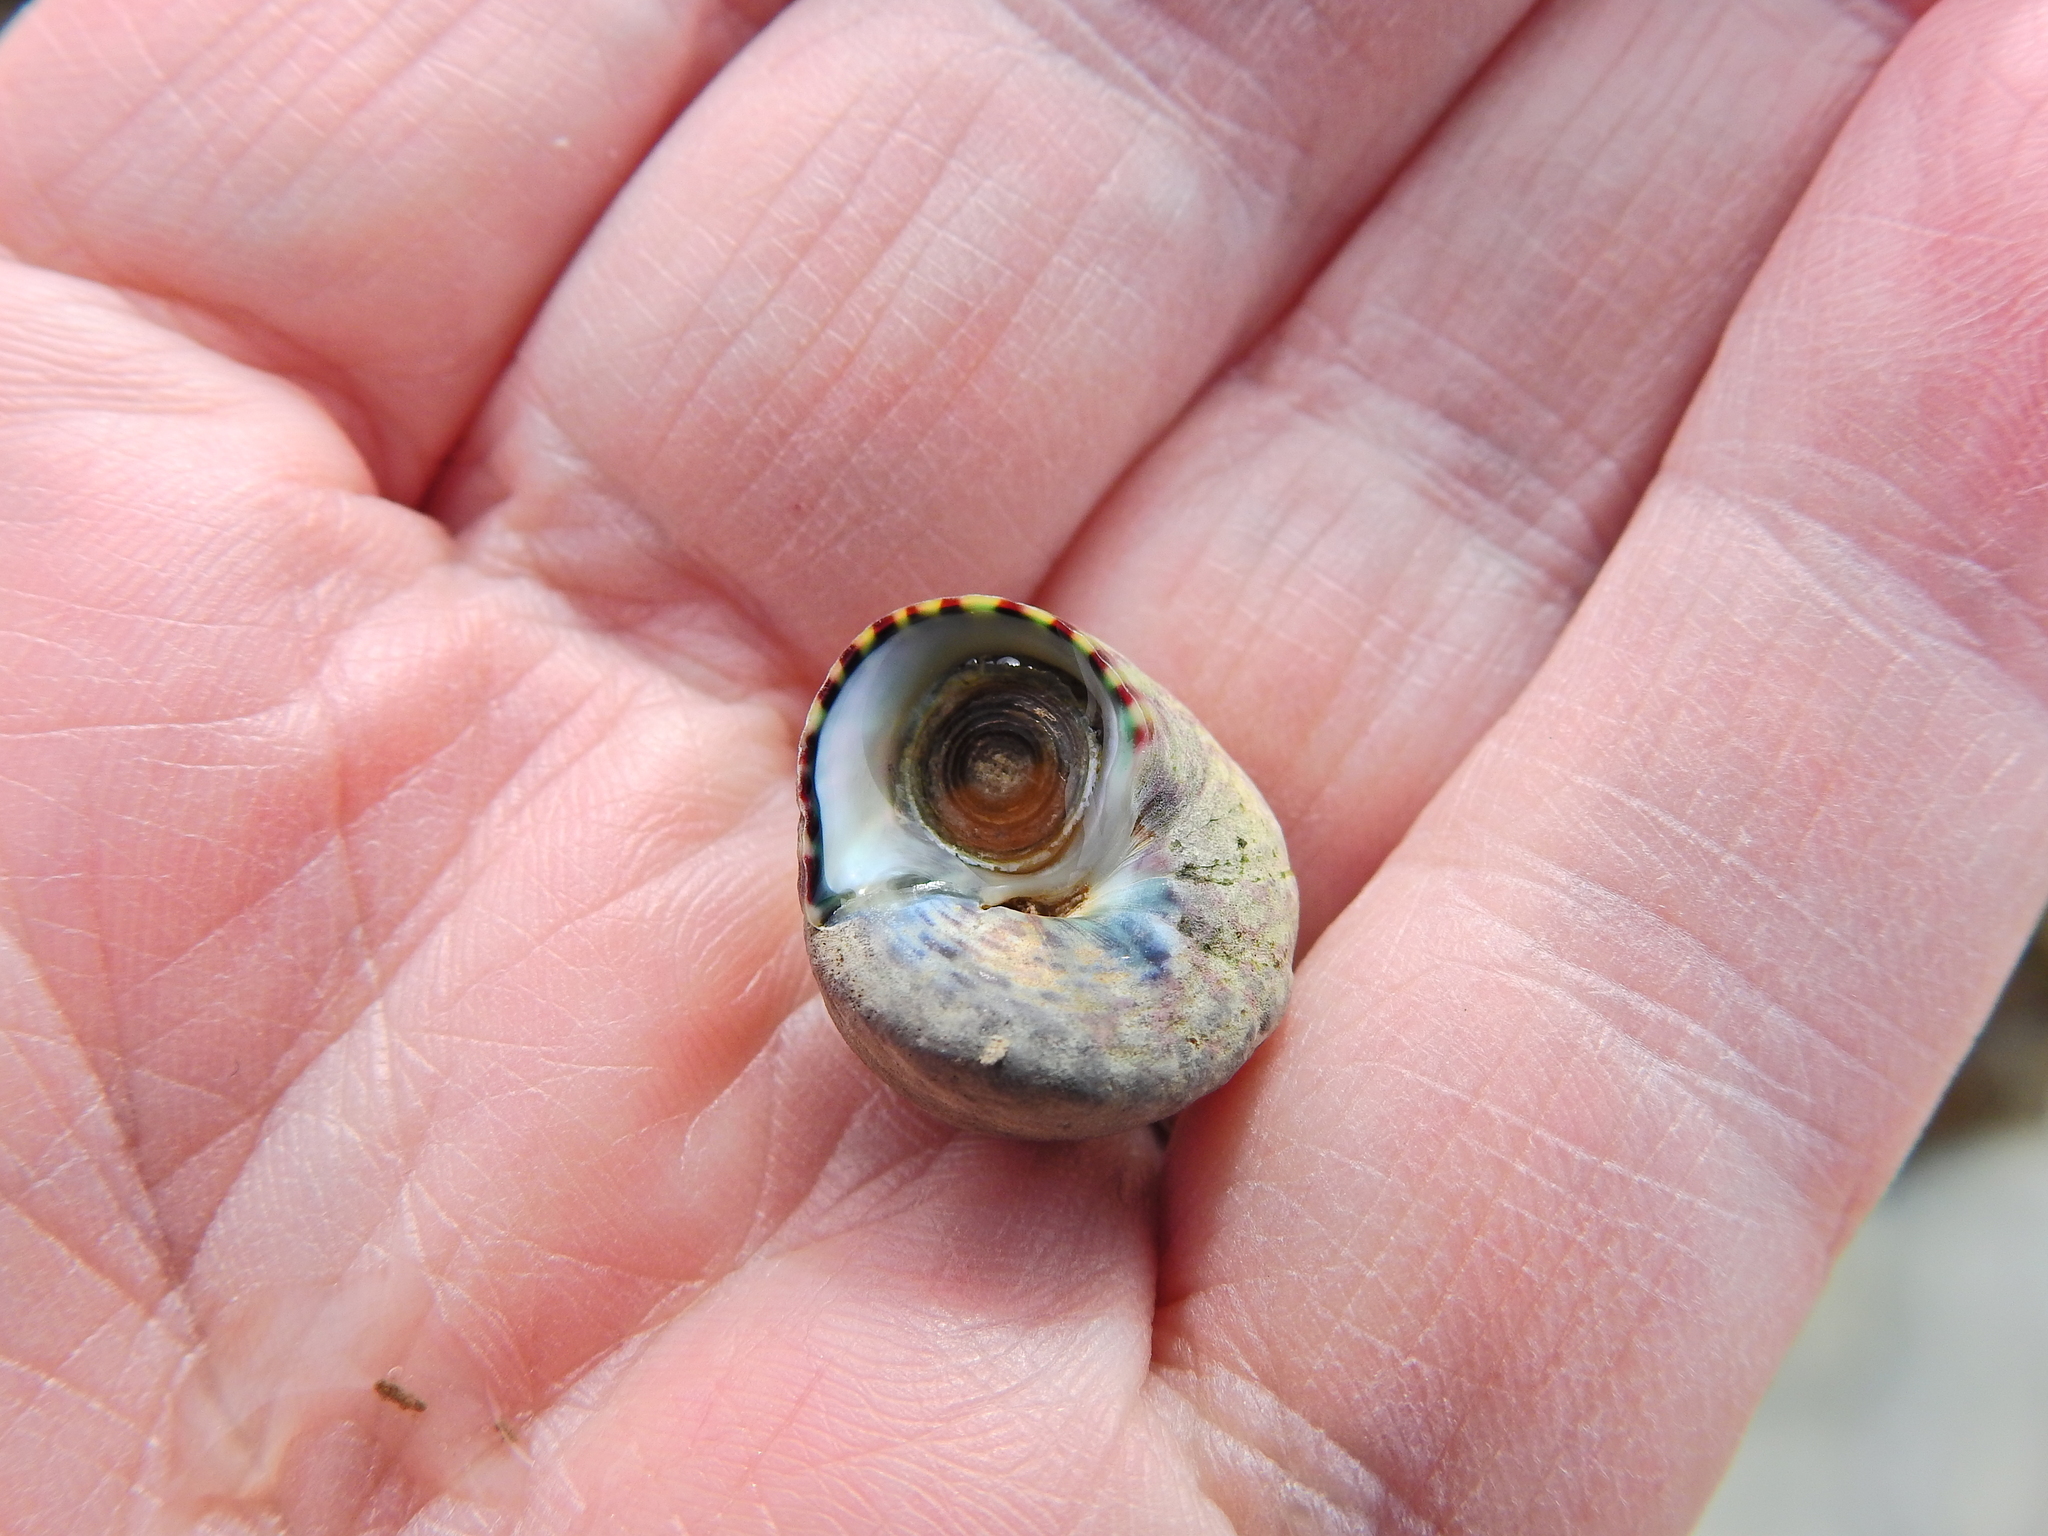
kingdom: Animalia
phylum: Mollusca
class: Gastropoda
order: Trochida
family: Trochidae
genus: Steromphala
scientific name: Steromphala umbilicalis
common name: Flat top shell
